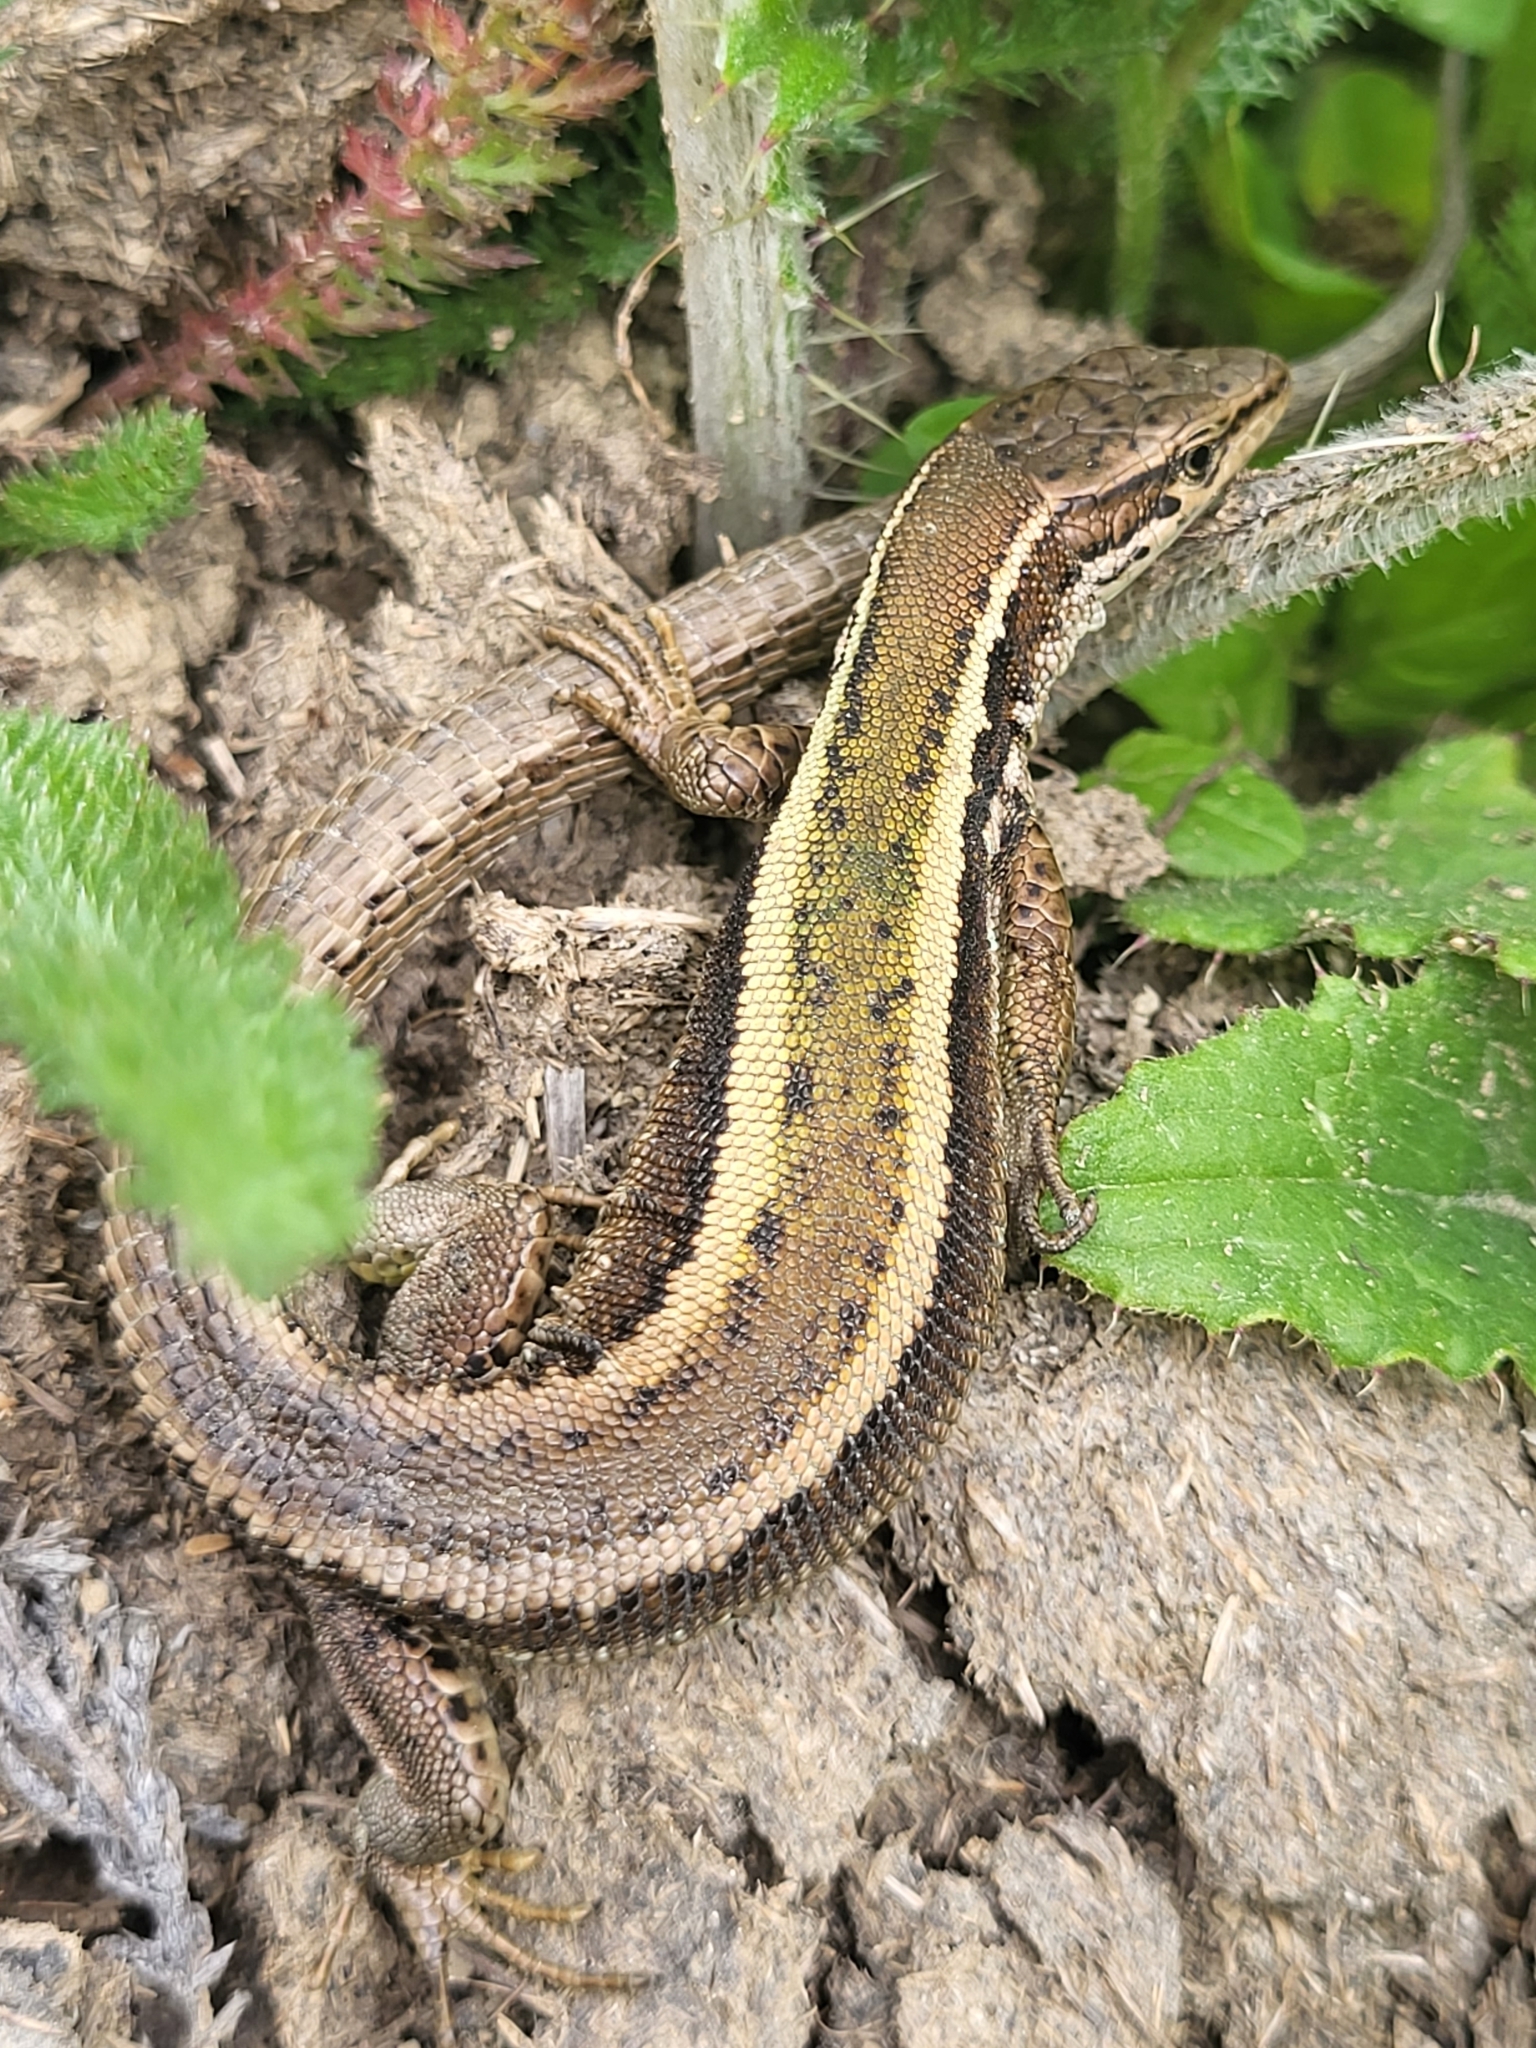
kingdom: Animalia
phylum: Chordata
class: Squamata
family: Lacertidae
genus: Darevskia
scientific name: Darevskia caucasica
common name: Caucasian llzard
